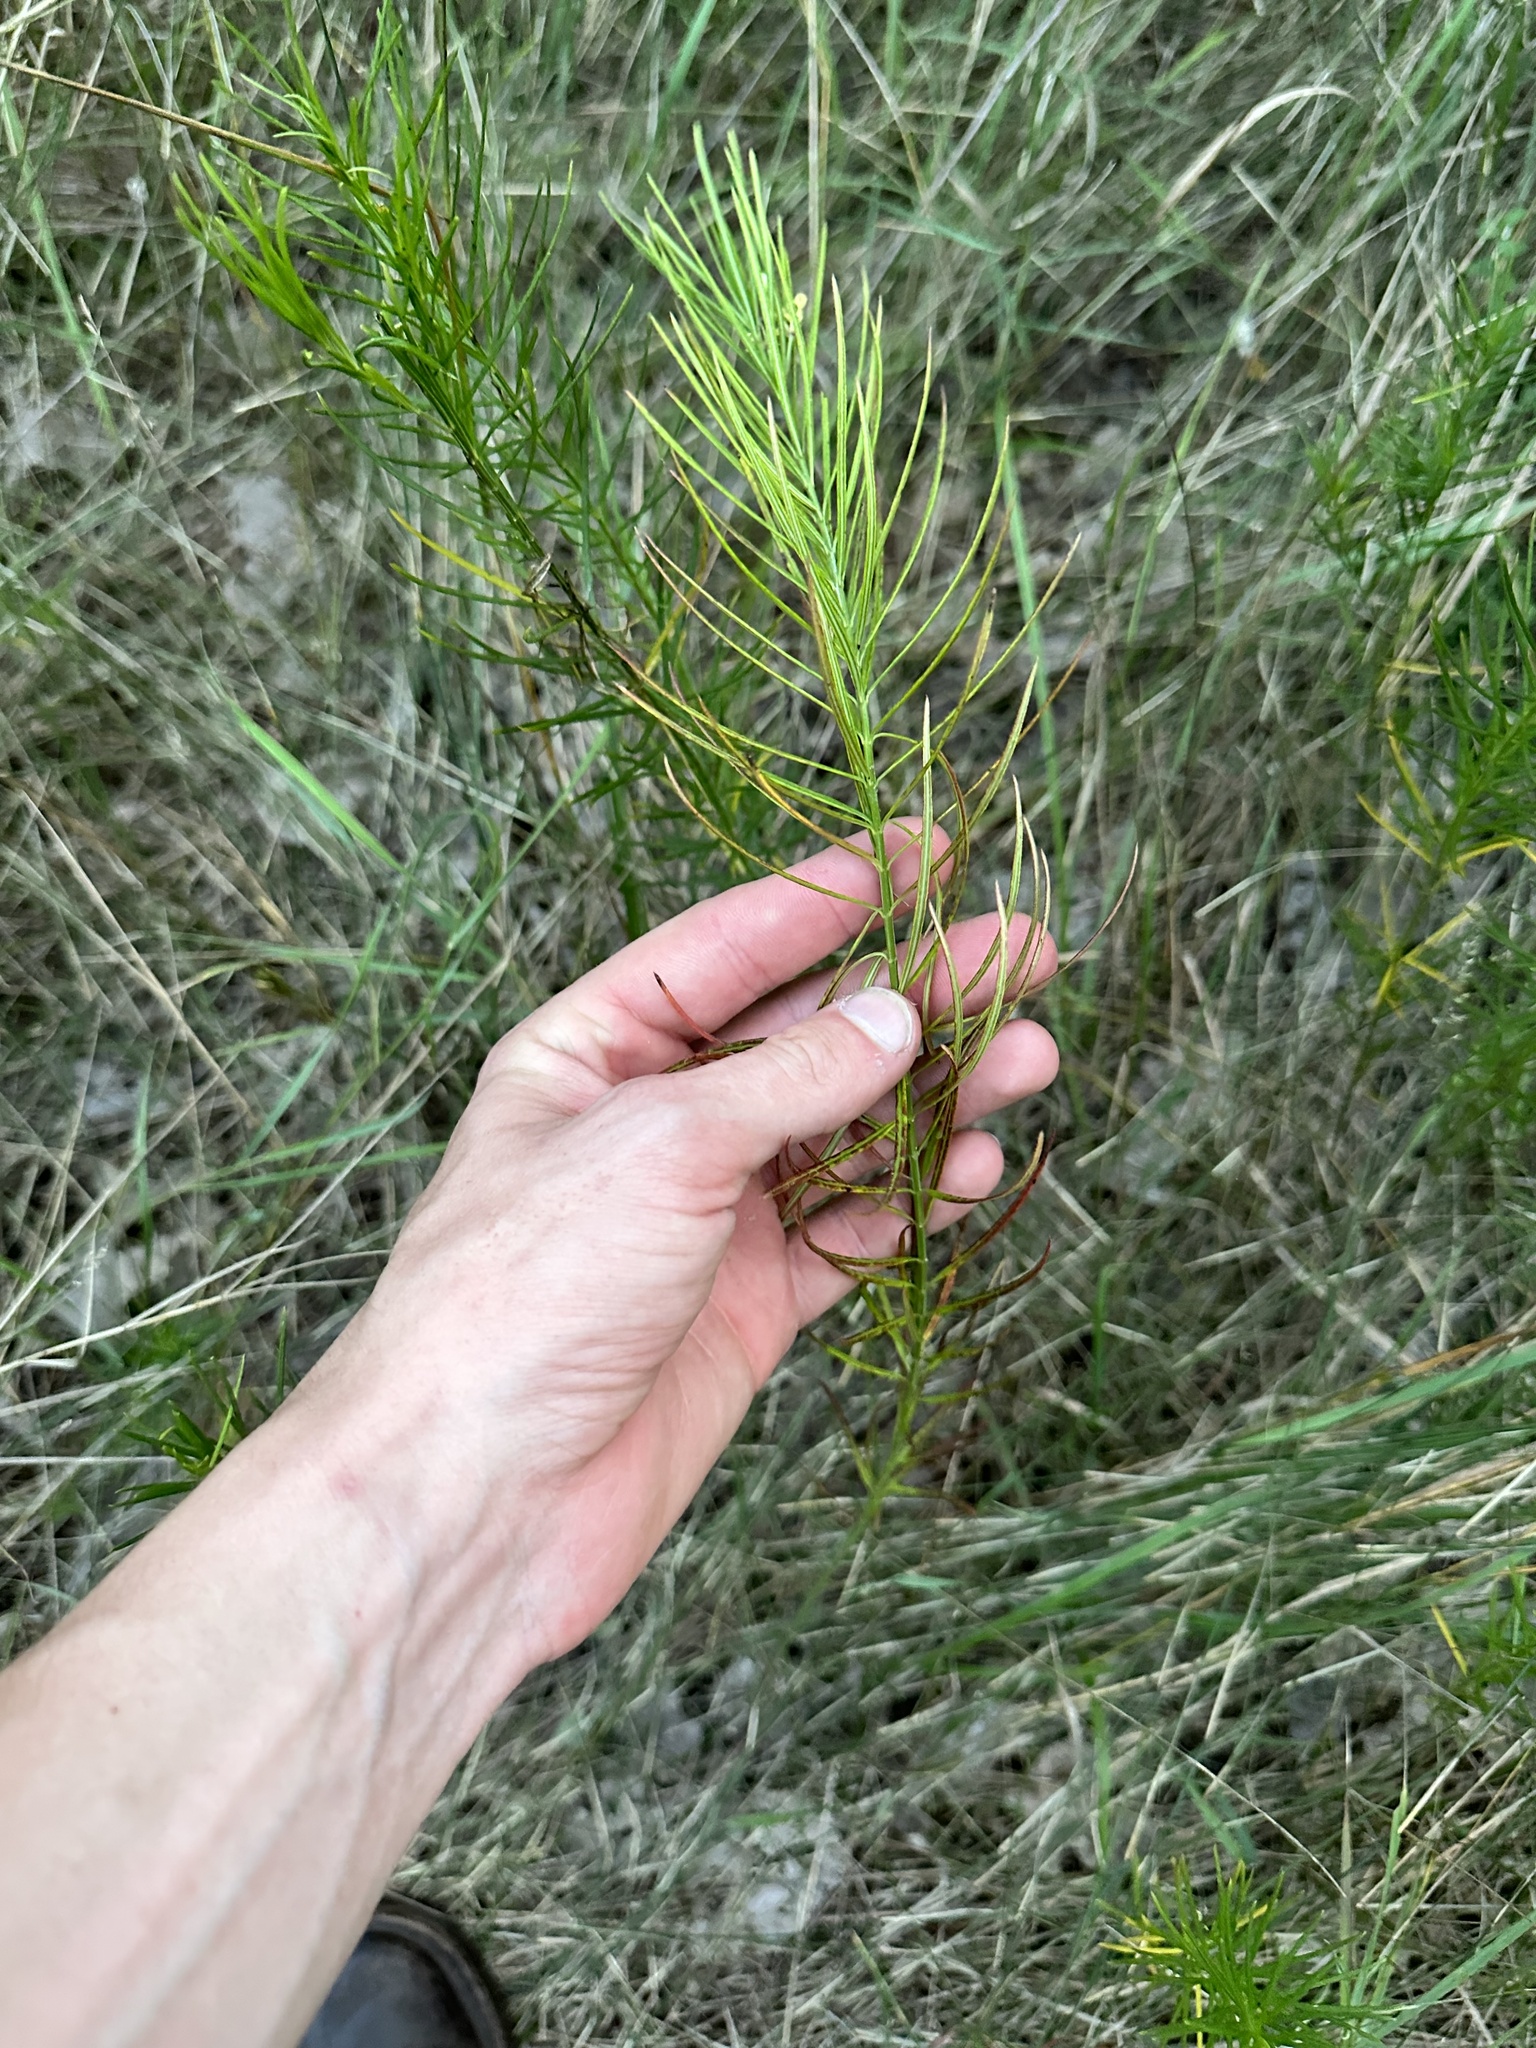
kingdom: Plantae
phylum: Tracheophyta
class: Magnoliopsida
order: Gentianales
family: Apocynaceae
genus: Asclepias
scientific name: Asclepias verticillata
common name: Eastern whorled milkweed
